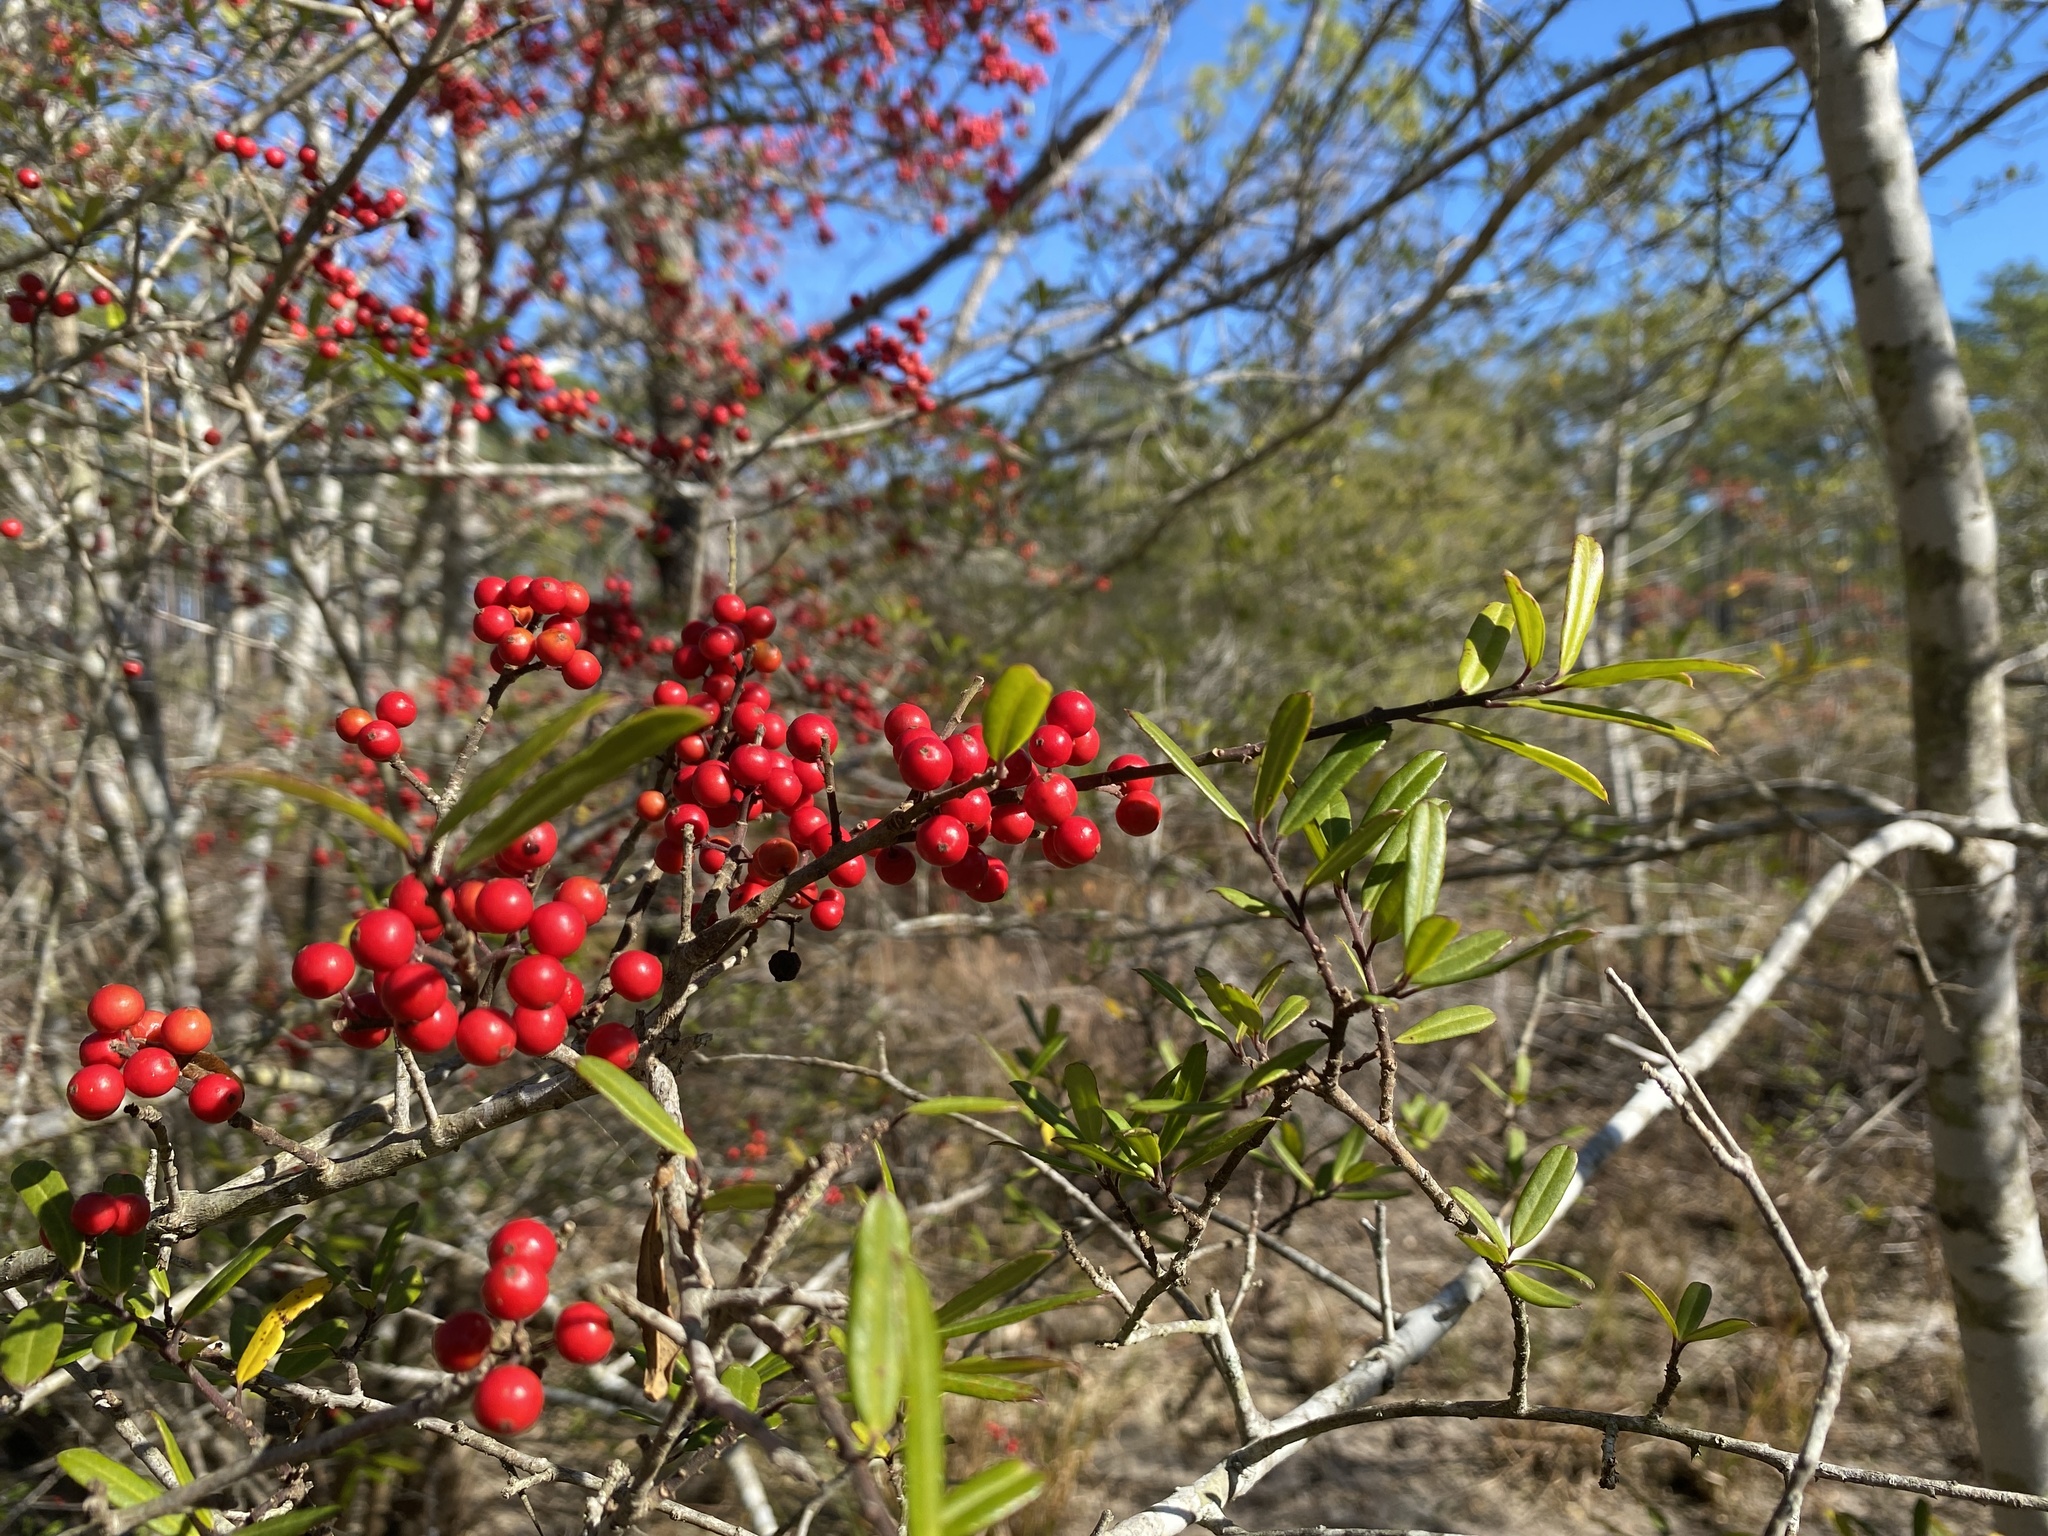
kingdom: Plantae
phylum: Tracheophyta
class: Magnoliopsida
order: Aquifoliales
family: Aquifoliaceae
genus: Ilex
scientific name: Ilex myrtifolia
